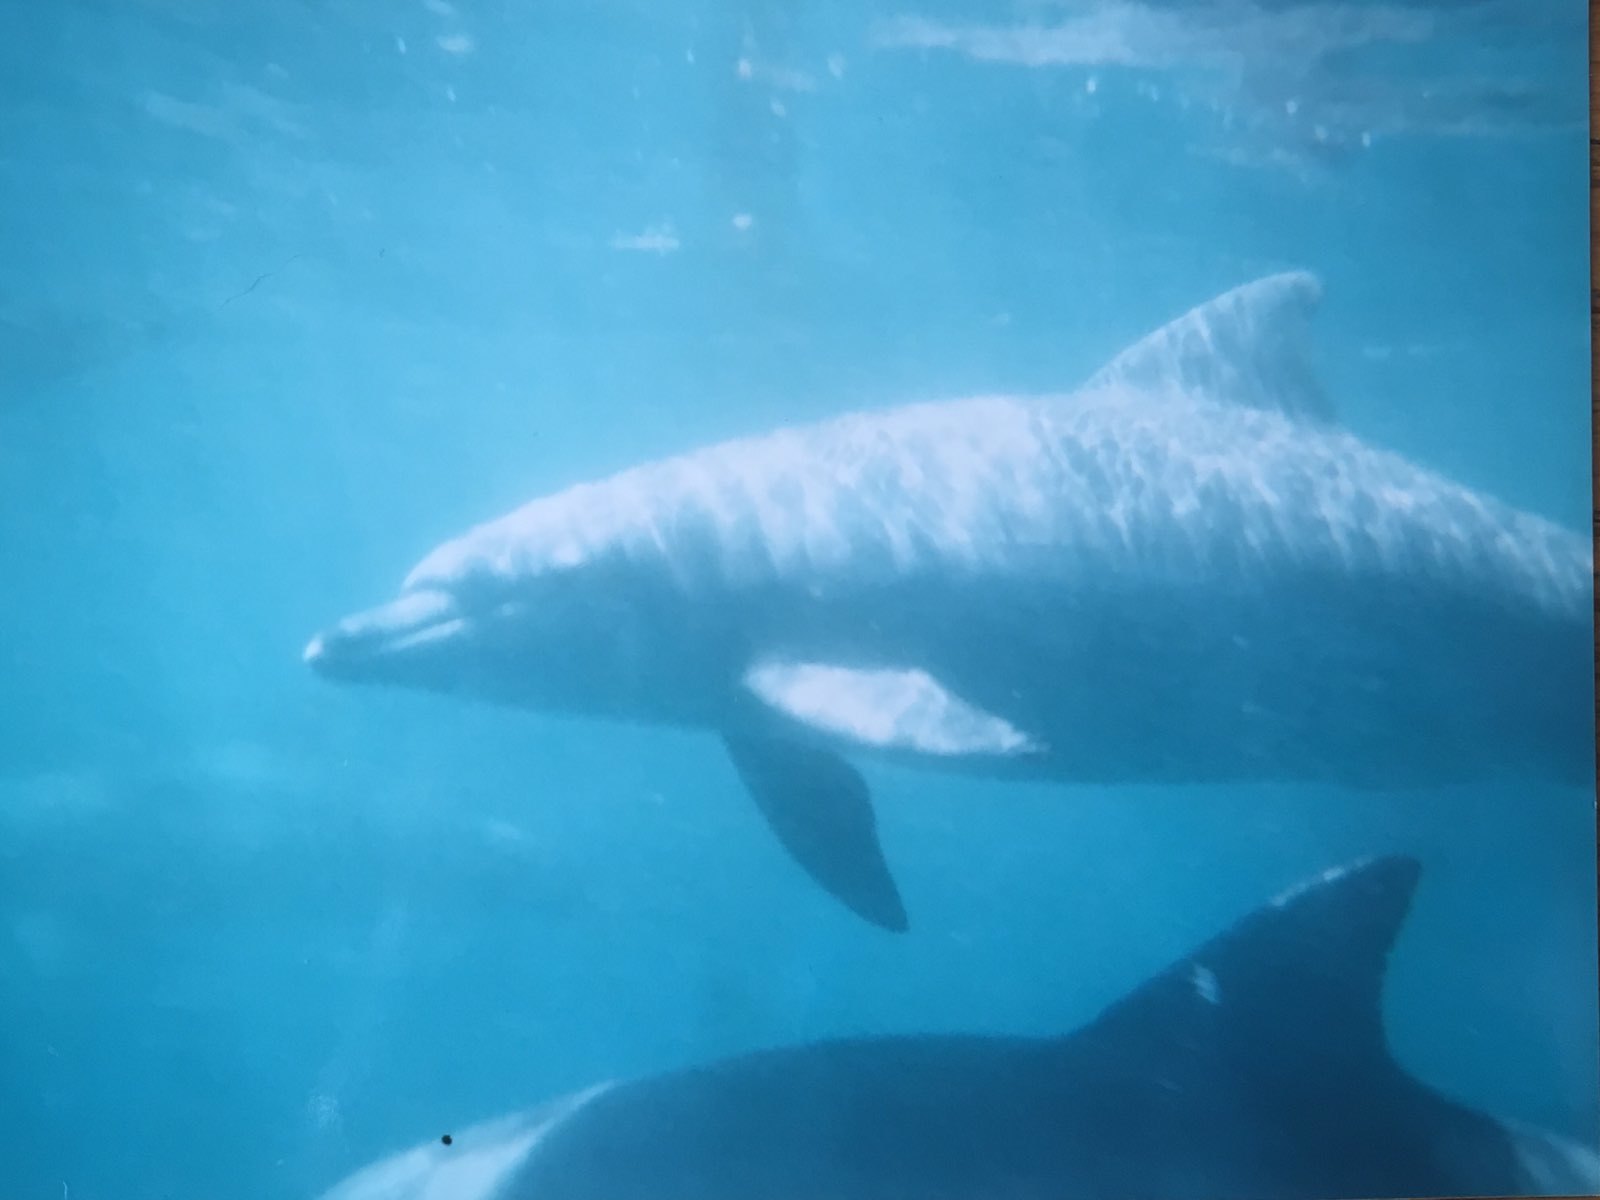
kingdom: Animalia
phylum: Chordata
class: Mammalia
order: Cetacea
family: Delphinidae
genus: Tursiops
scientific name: Tursiops aduncus
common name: Indo-pacific bottlenose dolphin
